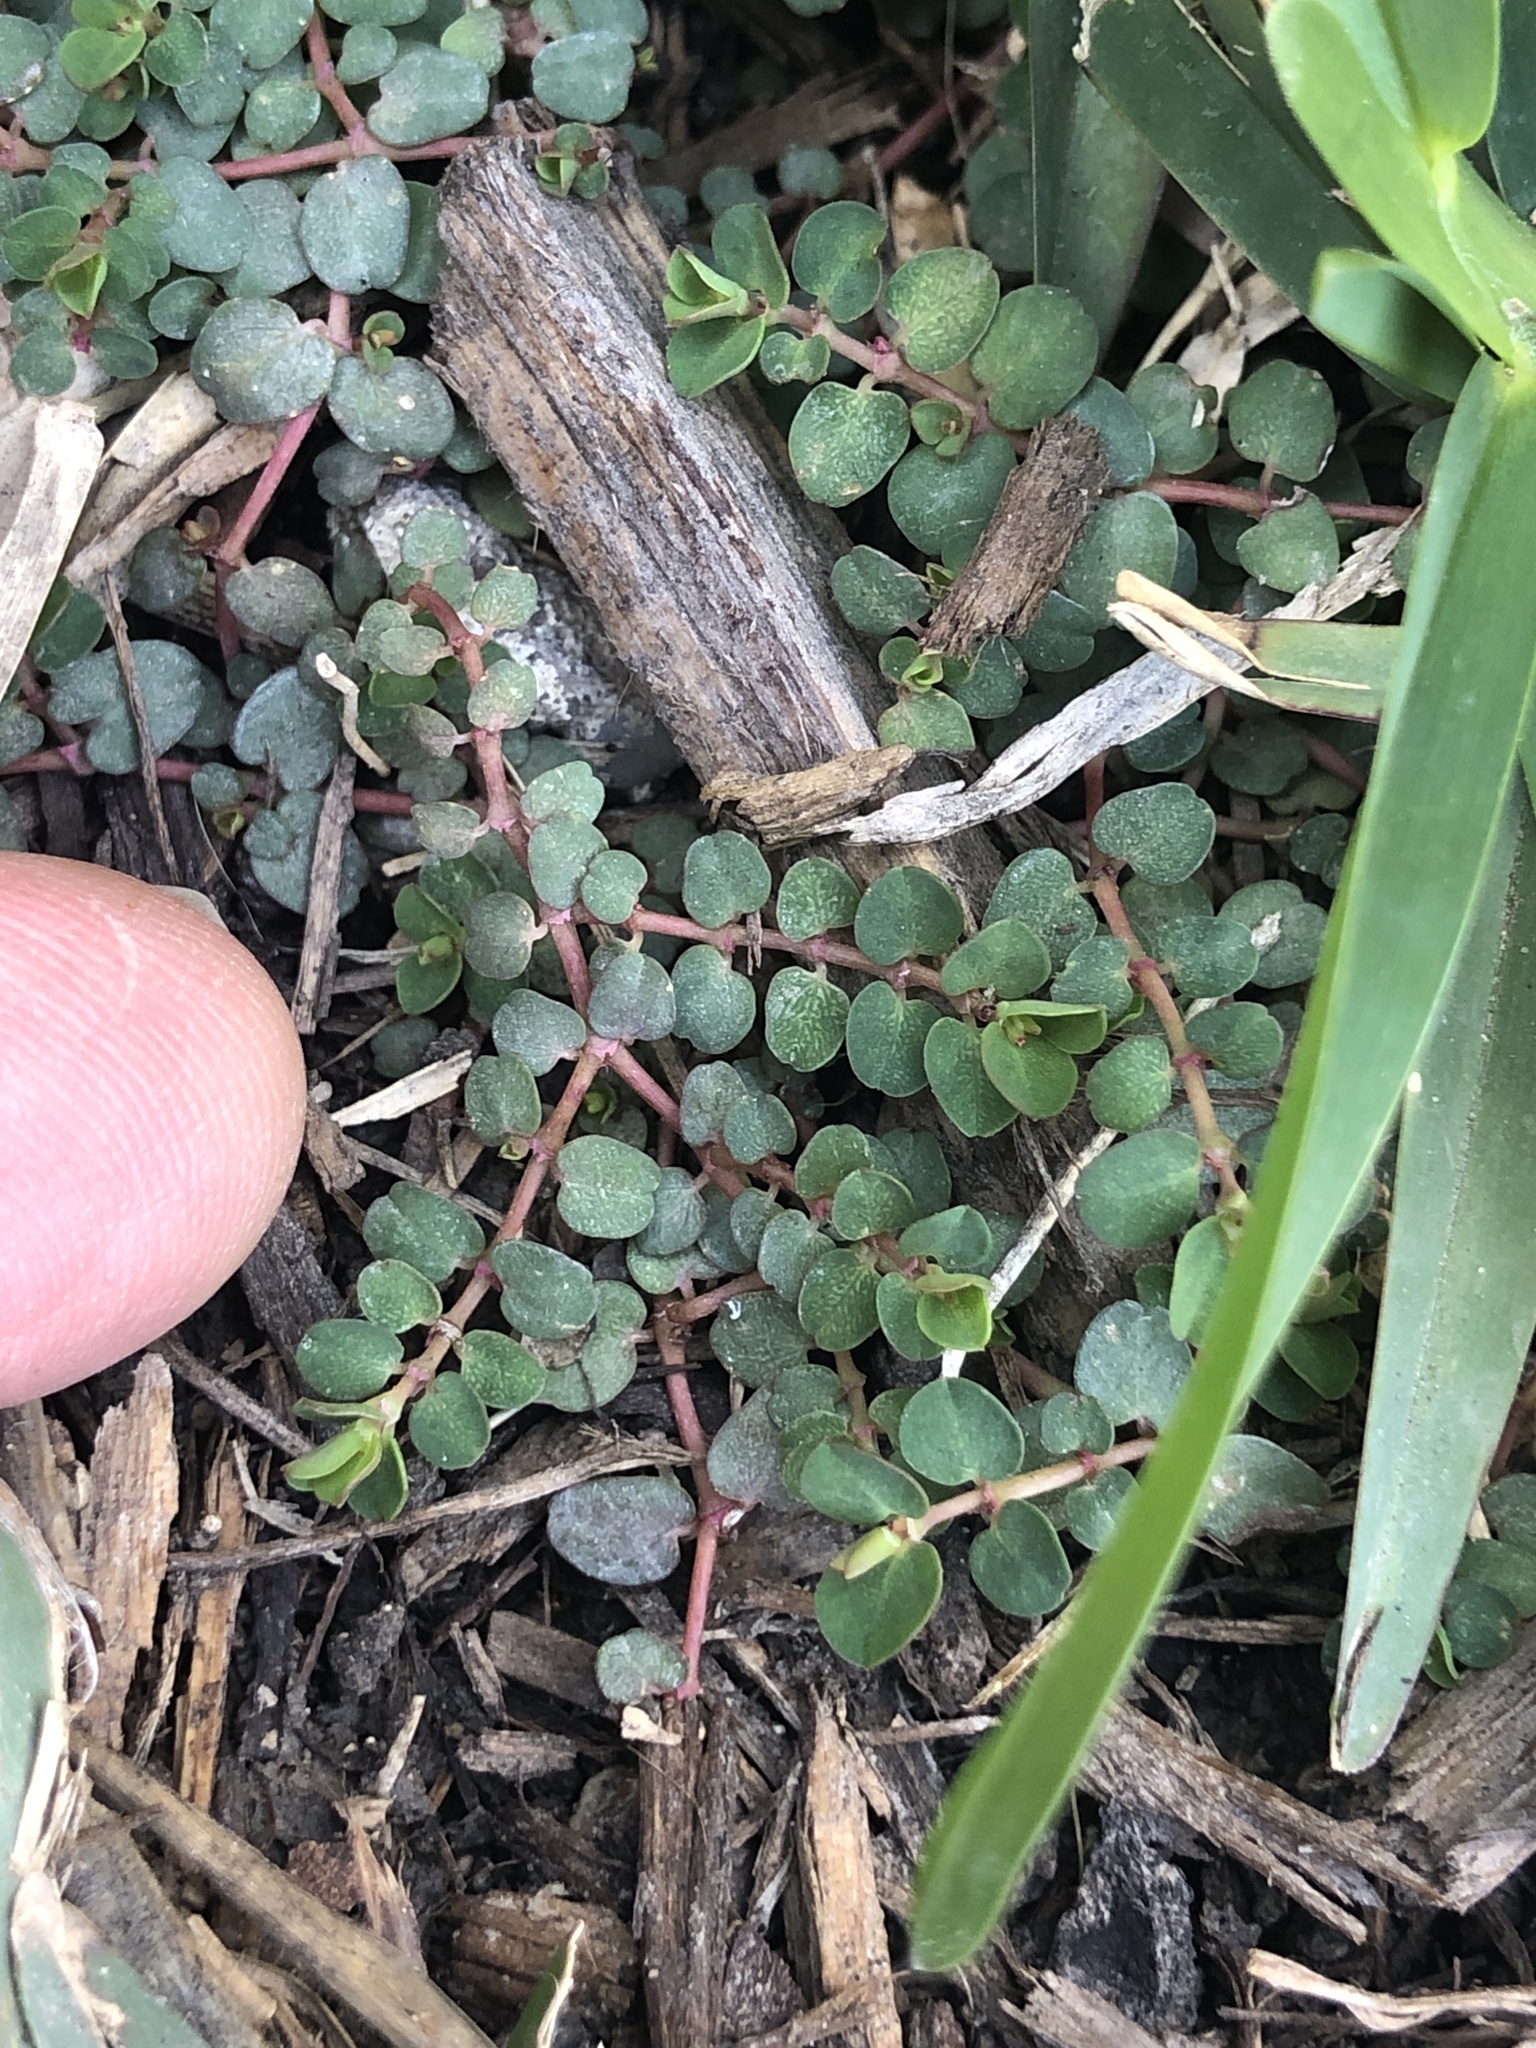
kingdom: Plantae
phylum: Tracheophyta
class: Magnoliopsida
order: Malpighiales
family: Euphorbiaceae
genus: Euphorbia
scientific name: Euphorbia serpens
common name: Matted sandmat
